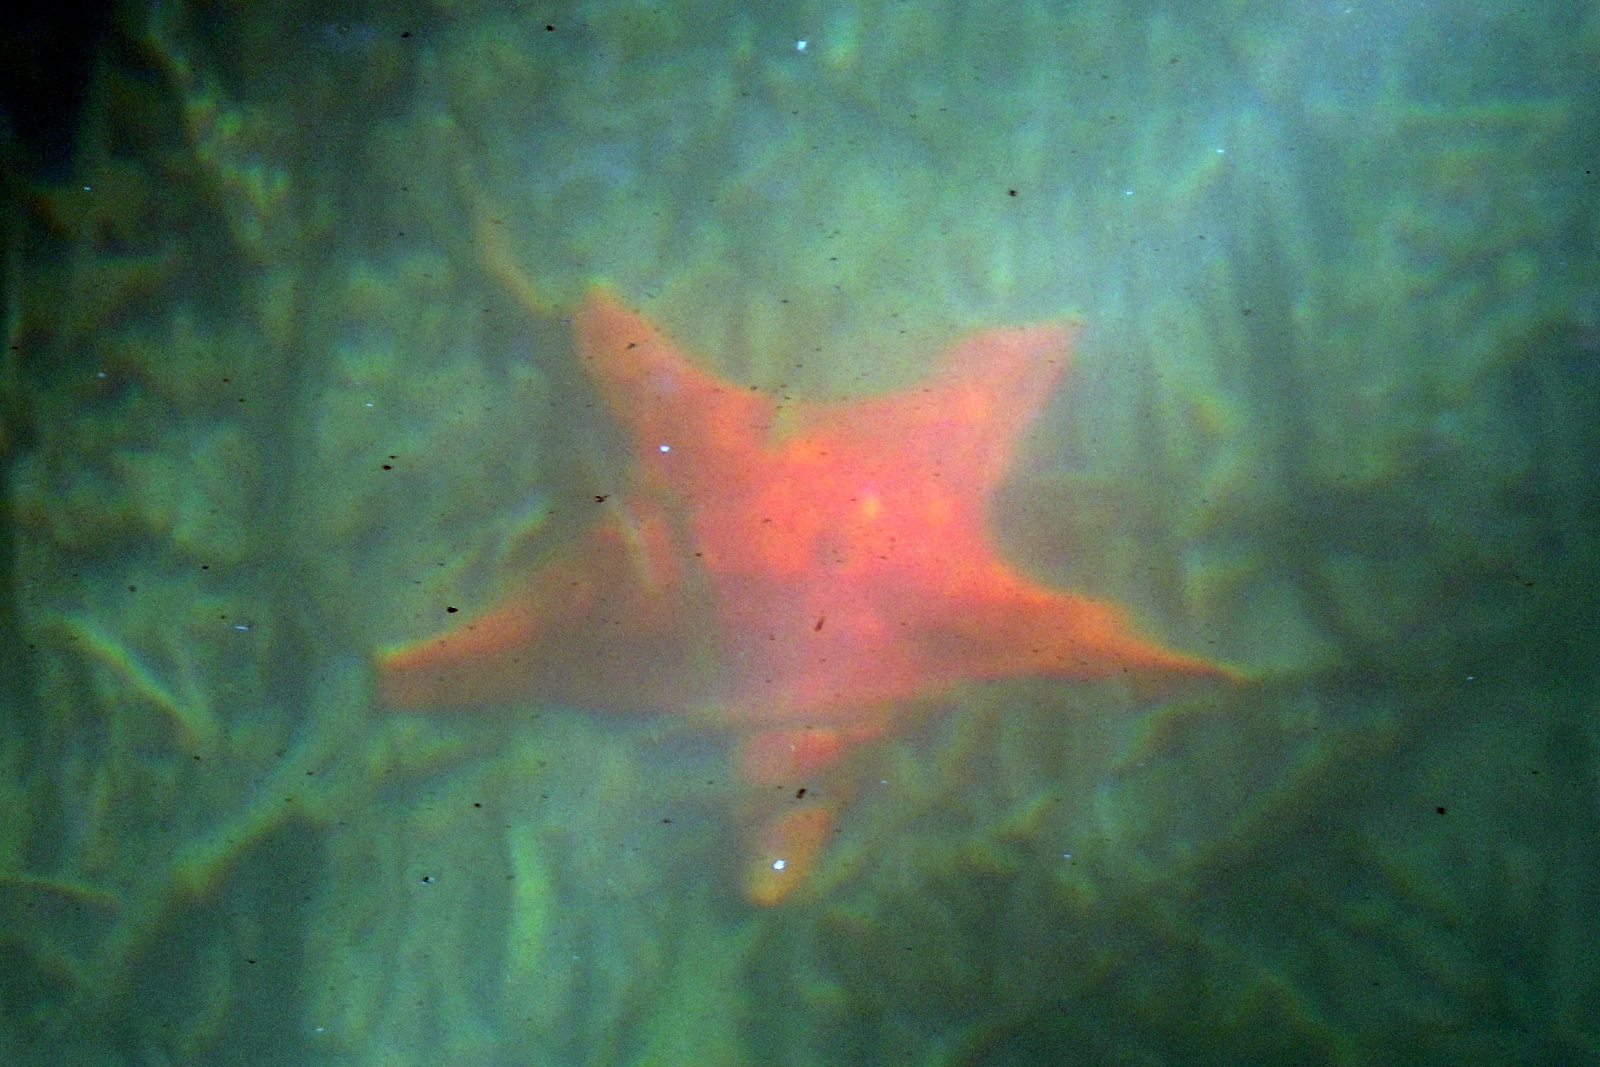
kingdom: Animalia
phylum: Echinodermata
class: Asteroidea
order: Valvatida
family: Asterinidae
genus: Patiria
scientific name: Patiria miniata
